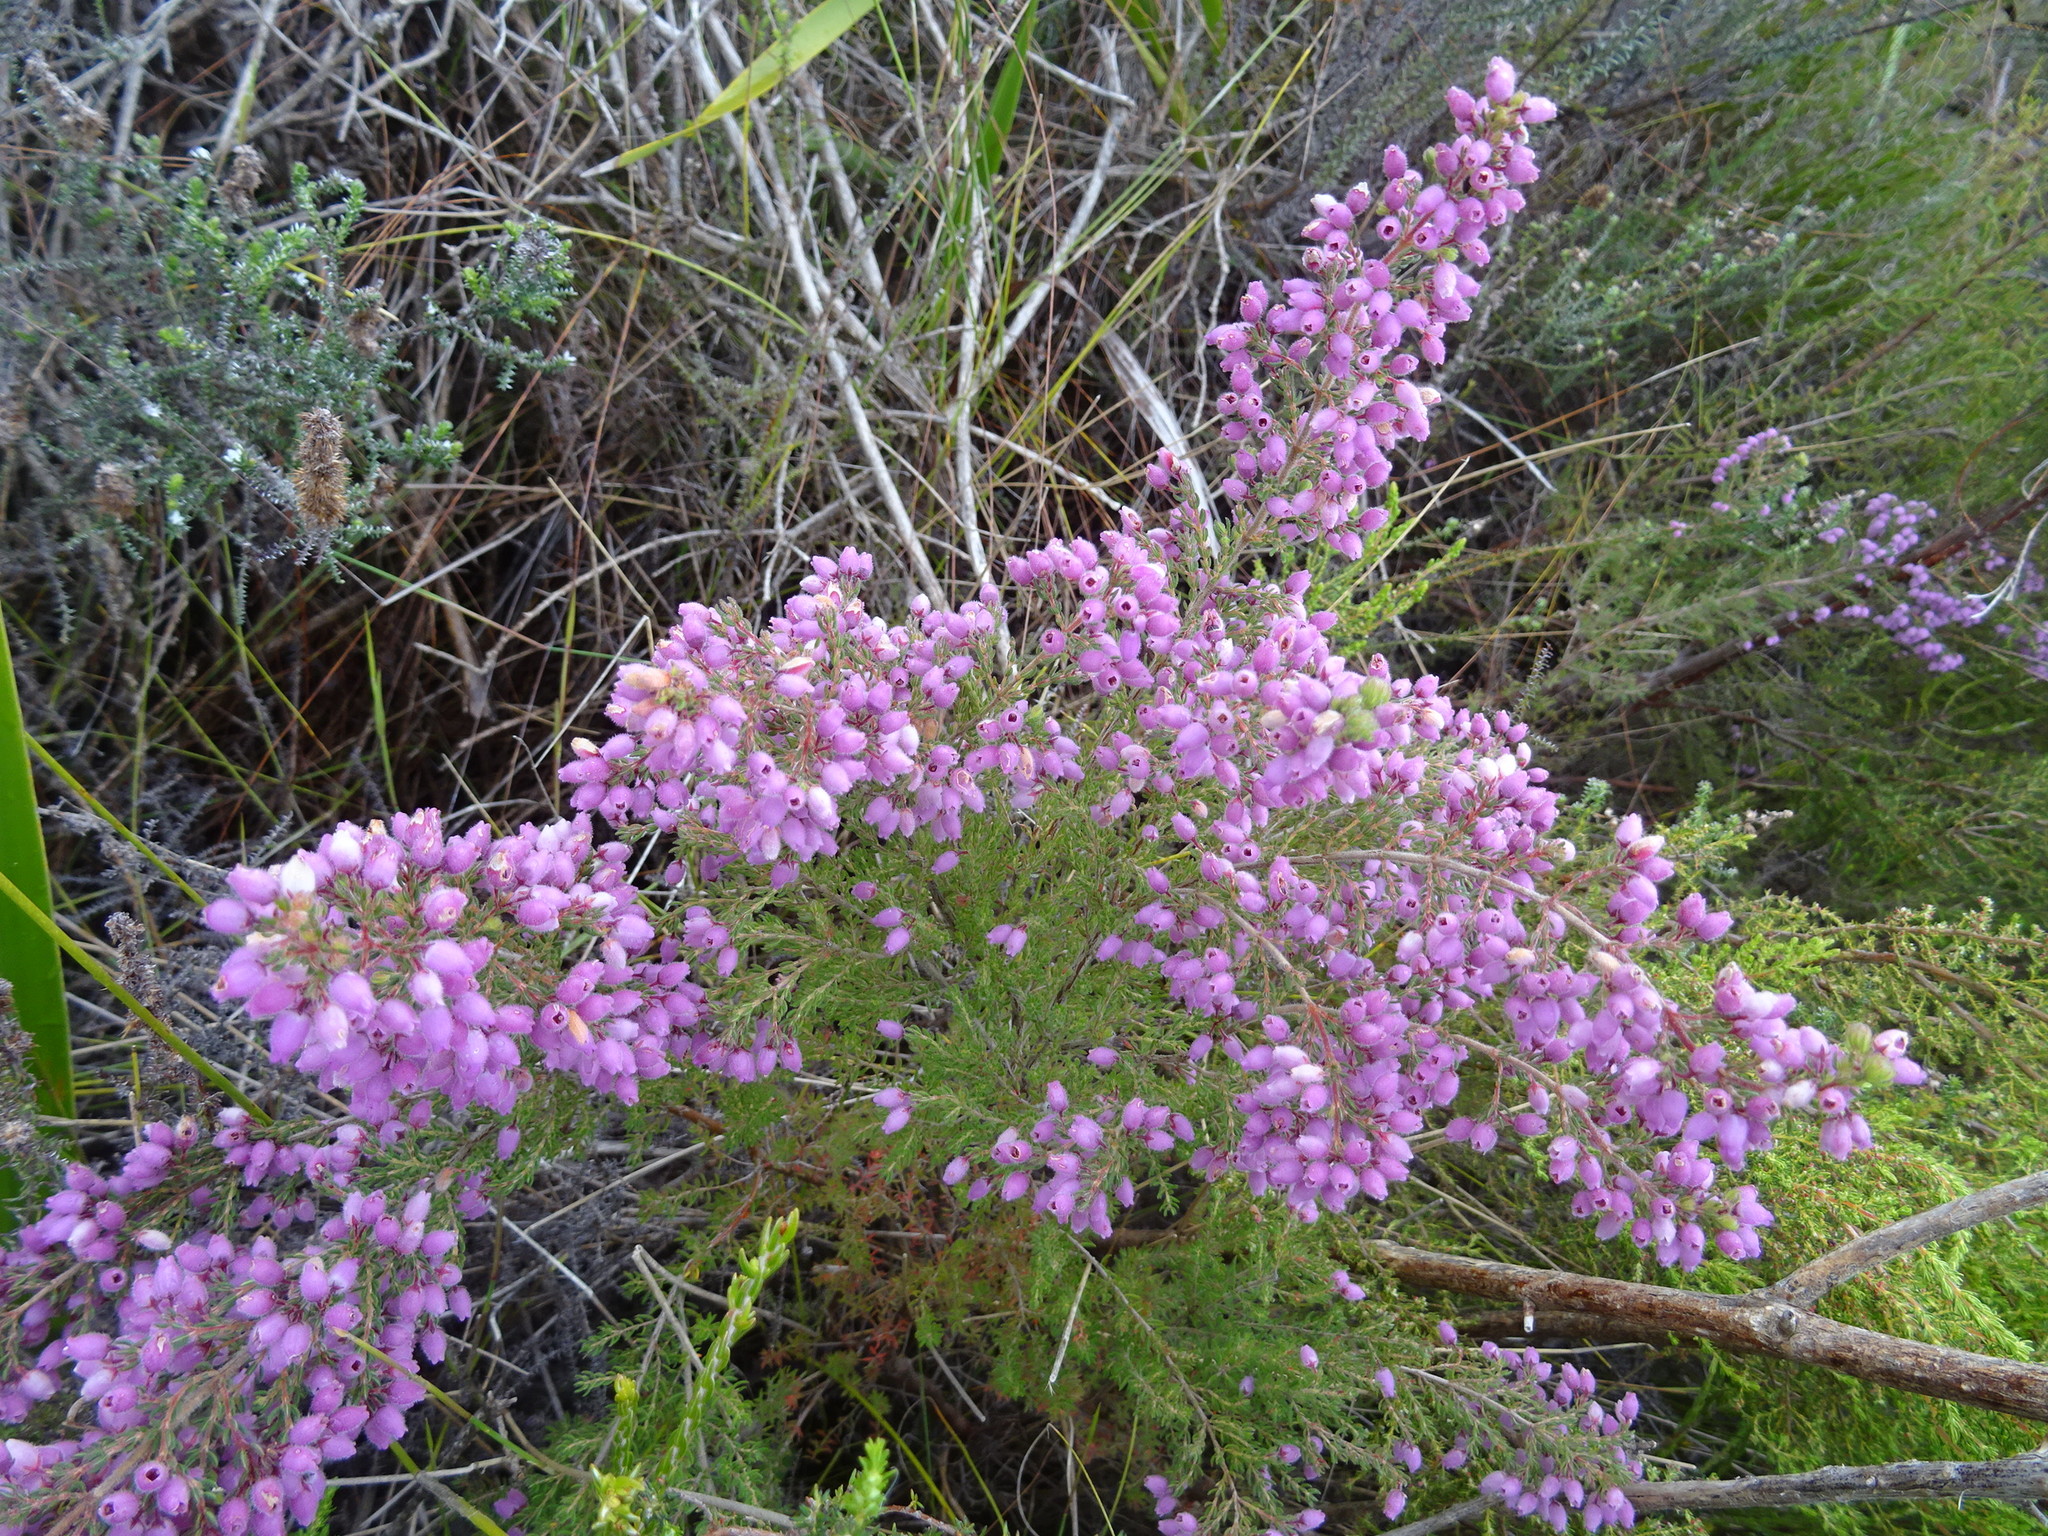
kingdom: Plantae
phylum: Tracheophyta
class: Magnoliopsida
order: Ericales
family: Ericaceae
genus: Erica
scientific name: Erica hirtiflora
